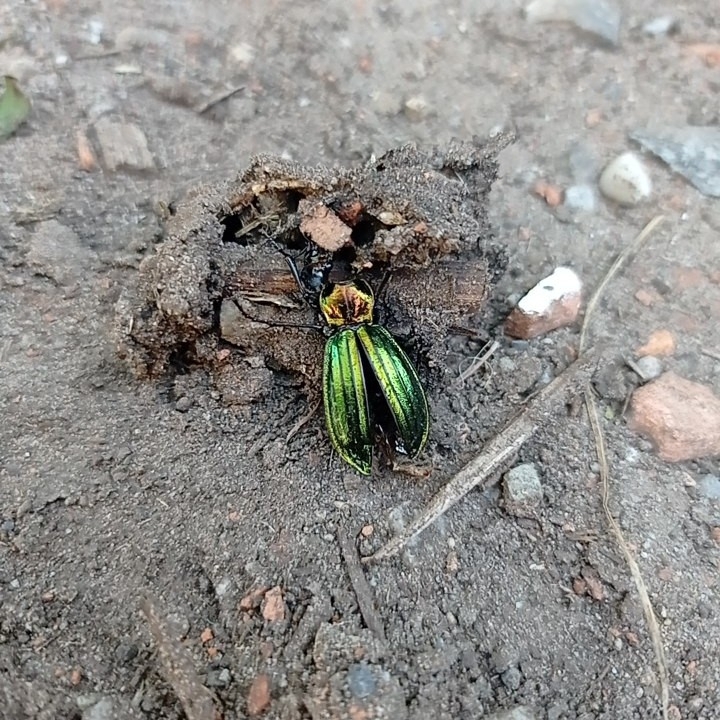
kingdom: Animalia
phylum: Arthropoda
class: Insecta
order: Coleoptera
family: Carabidae
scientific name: Carabidae
